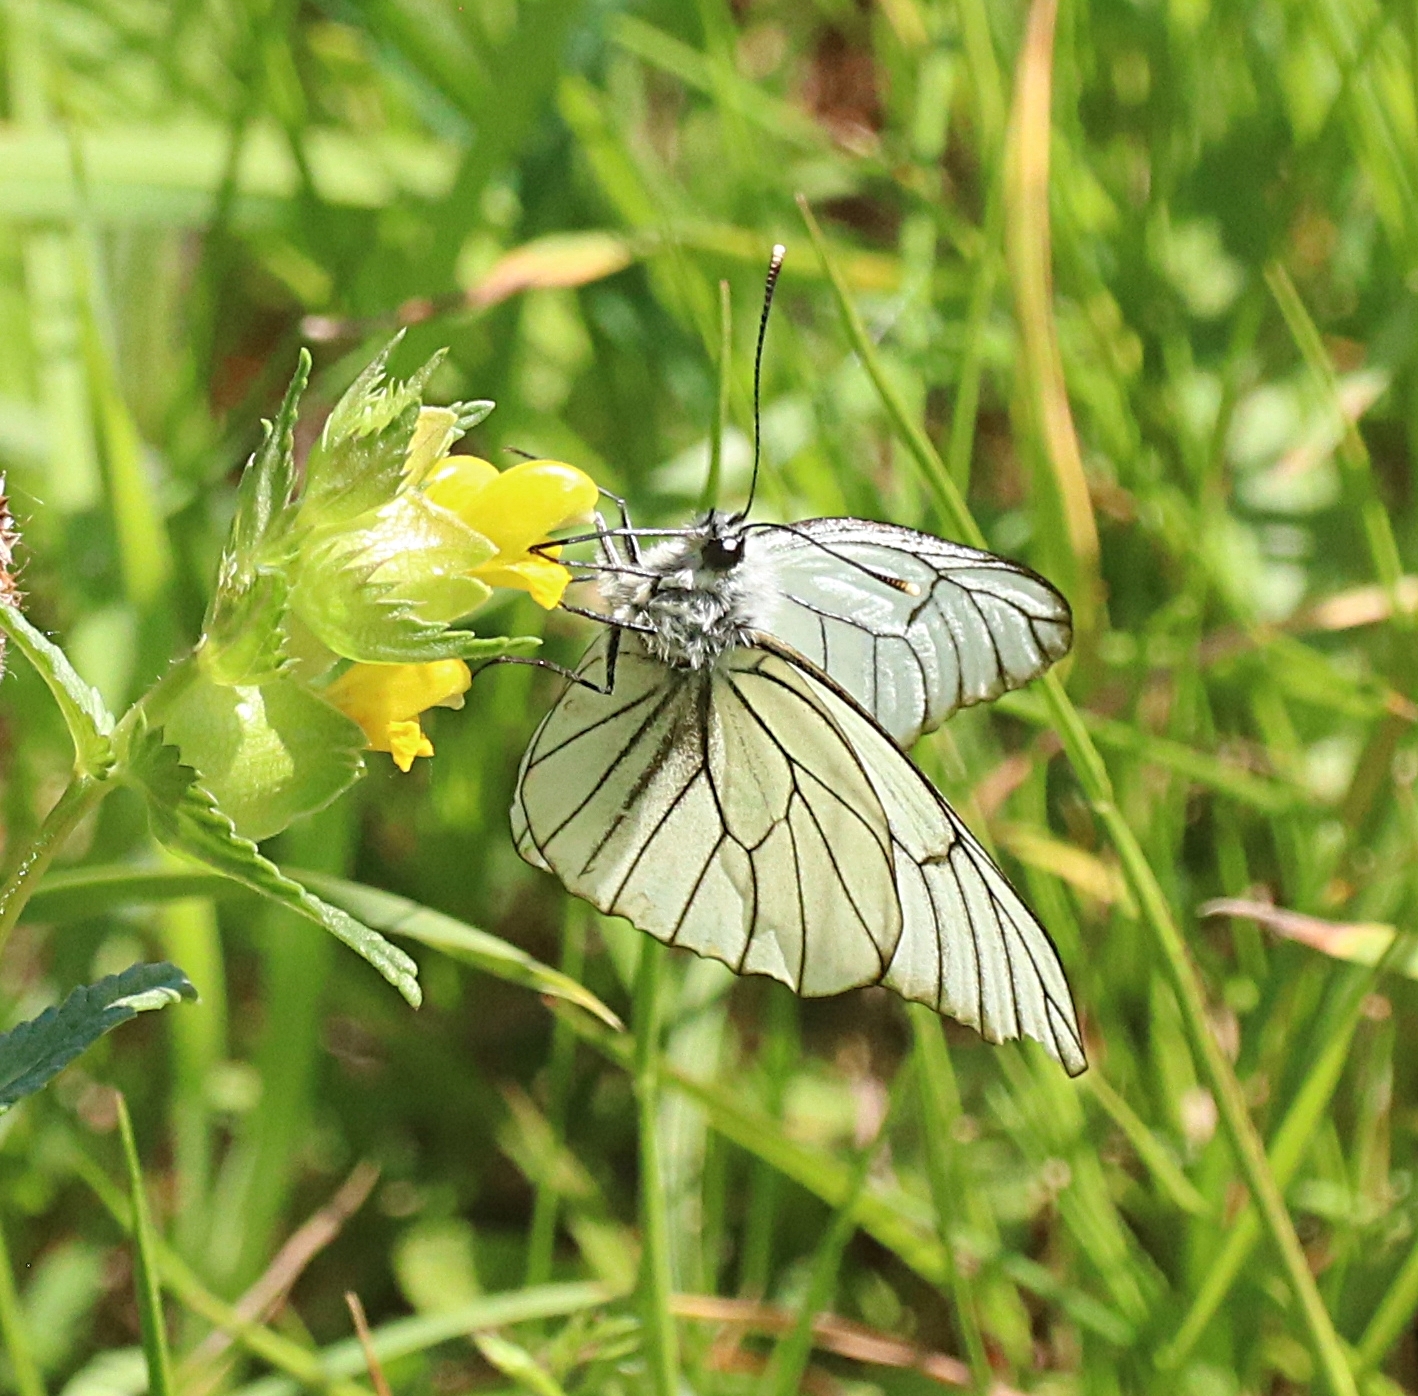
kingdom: Animalia
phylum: Arthropoda
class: Insecta
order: Lepidoptera
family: Pieridae
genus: Aporia
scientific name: Aporia crataegi
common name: Black-veined white
